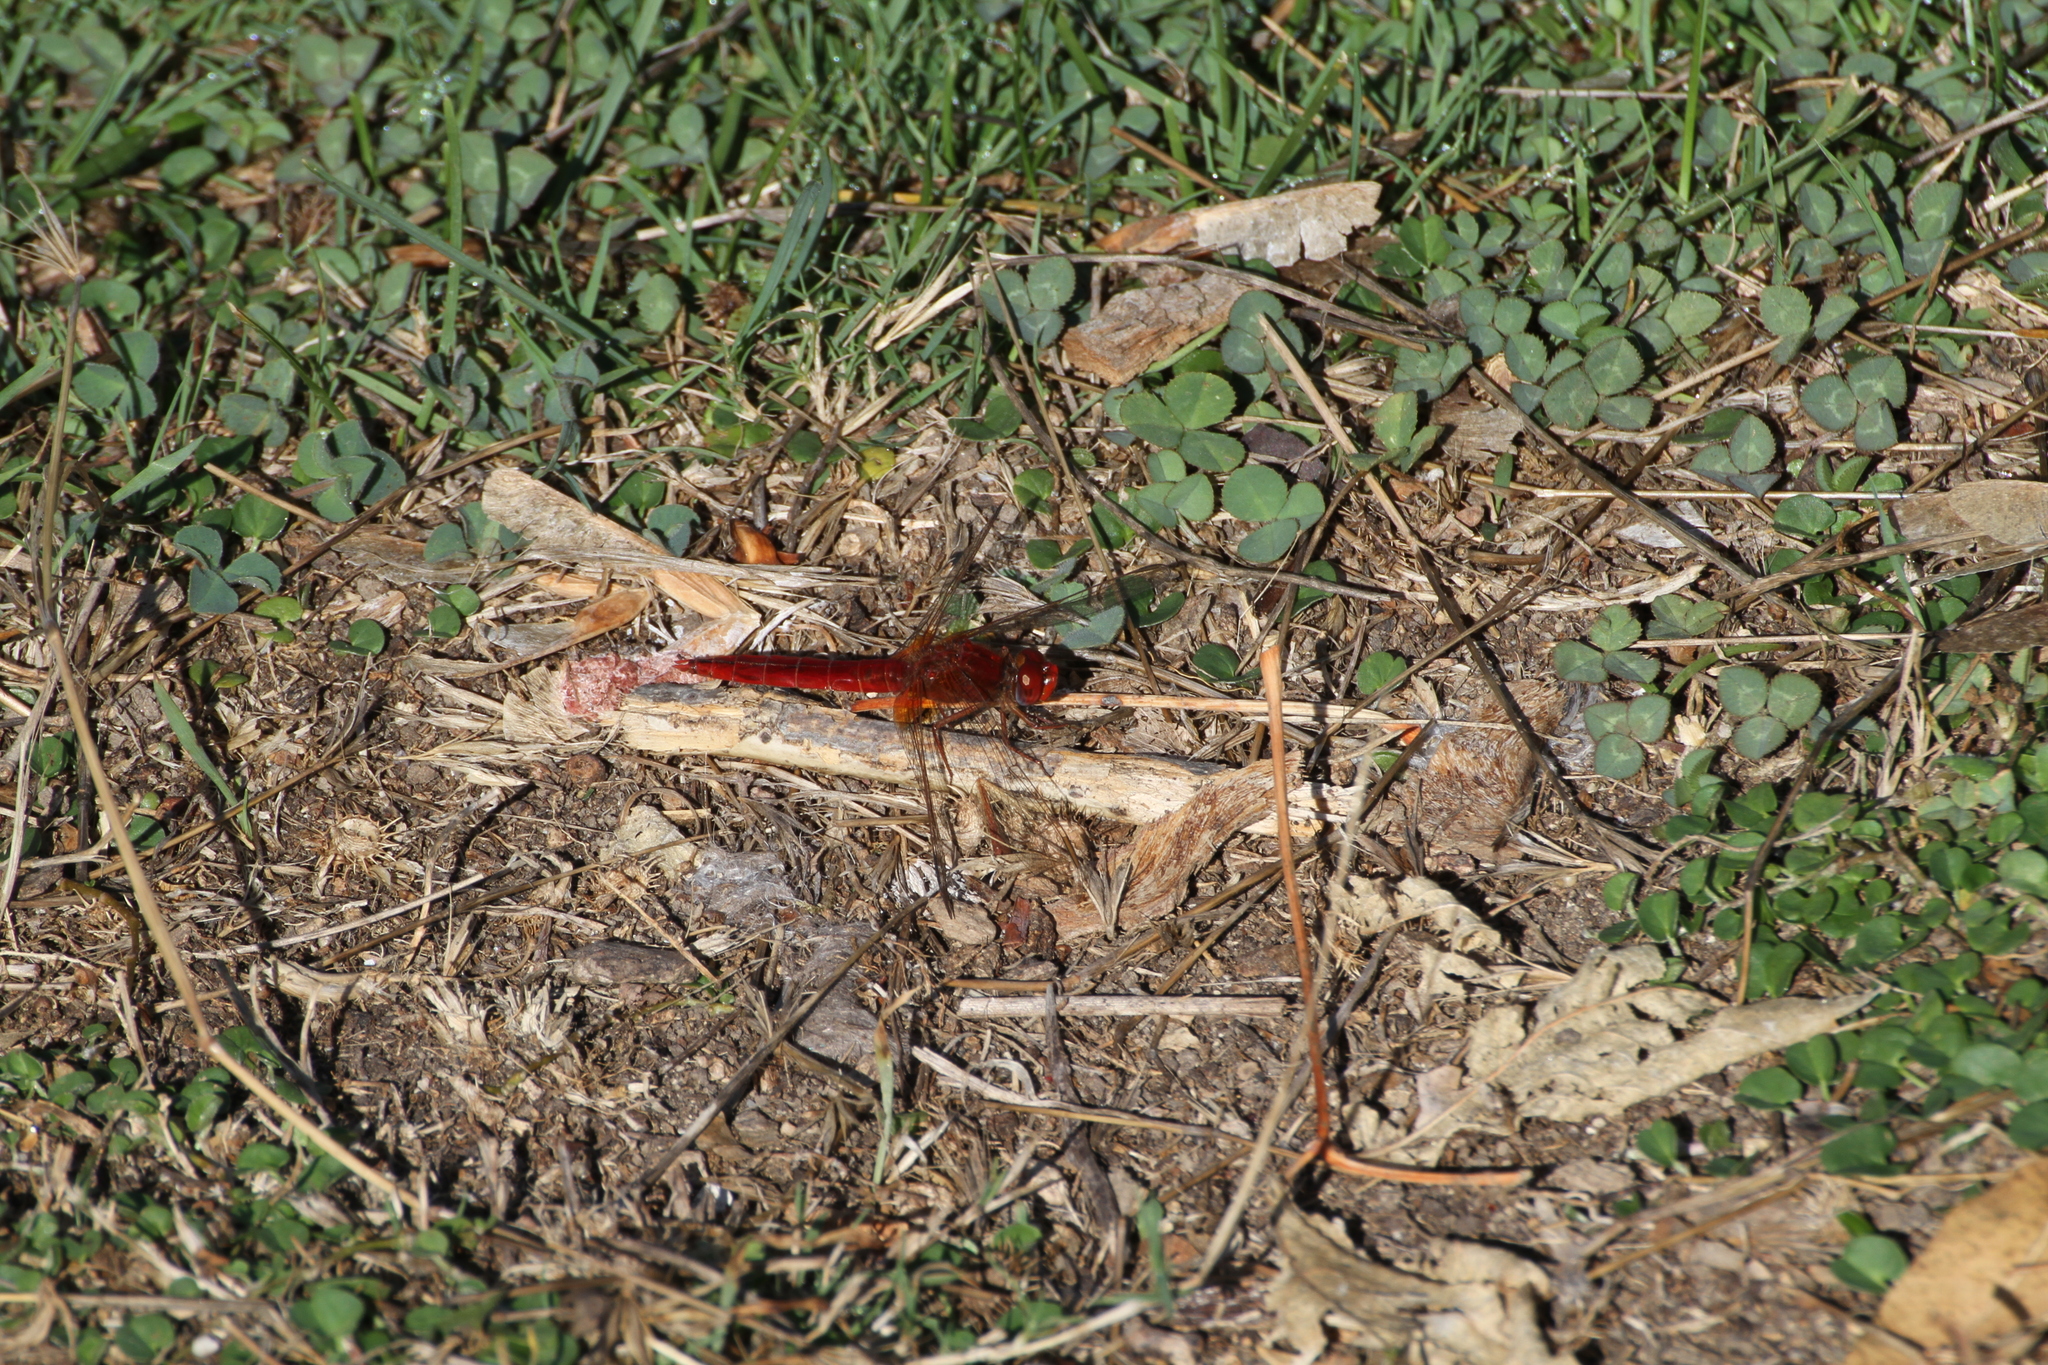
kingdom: Animalia
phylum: Arthropoda
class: Insecta
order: Odonata
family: Libellulidae
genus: Crocothemis
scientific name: Crocothemis erythraea
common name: Scarlet dragonfly
